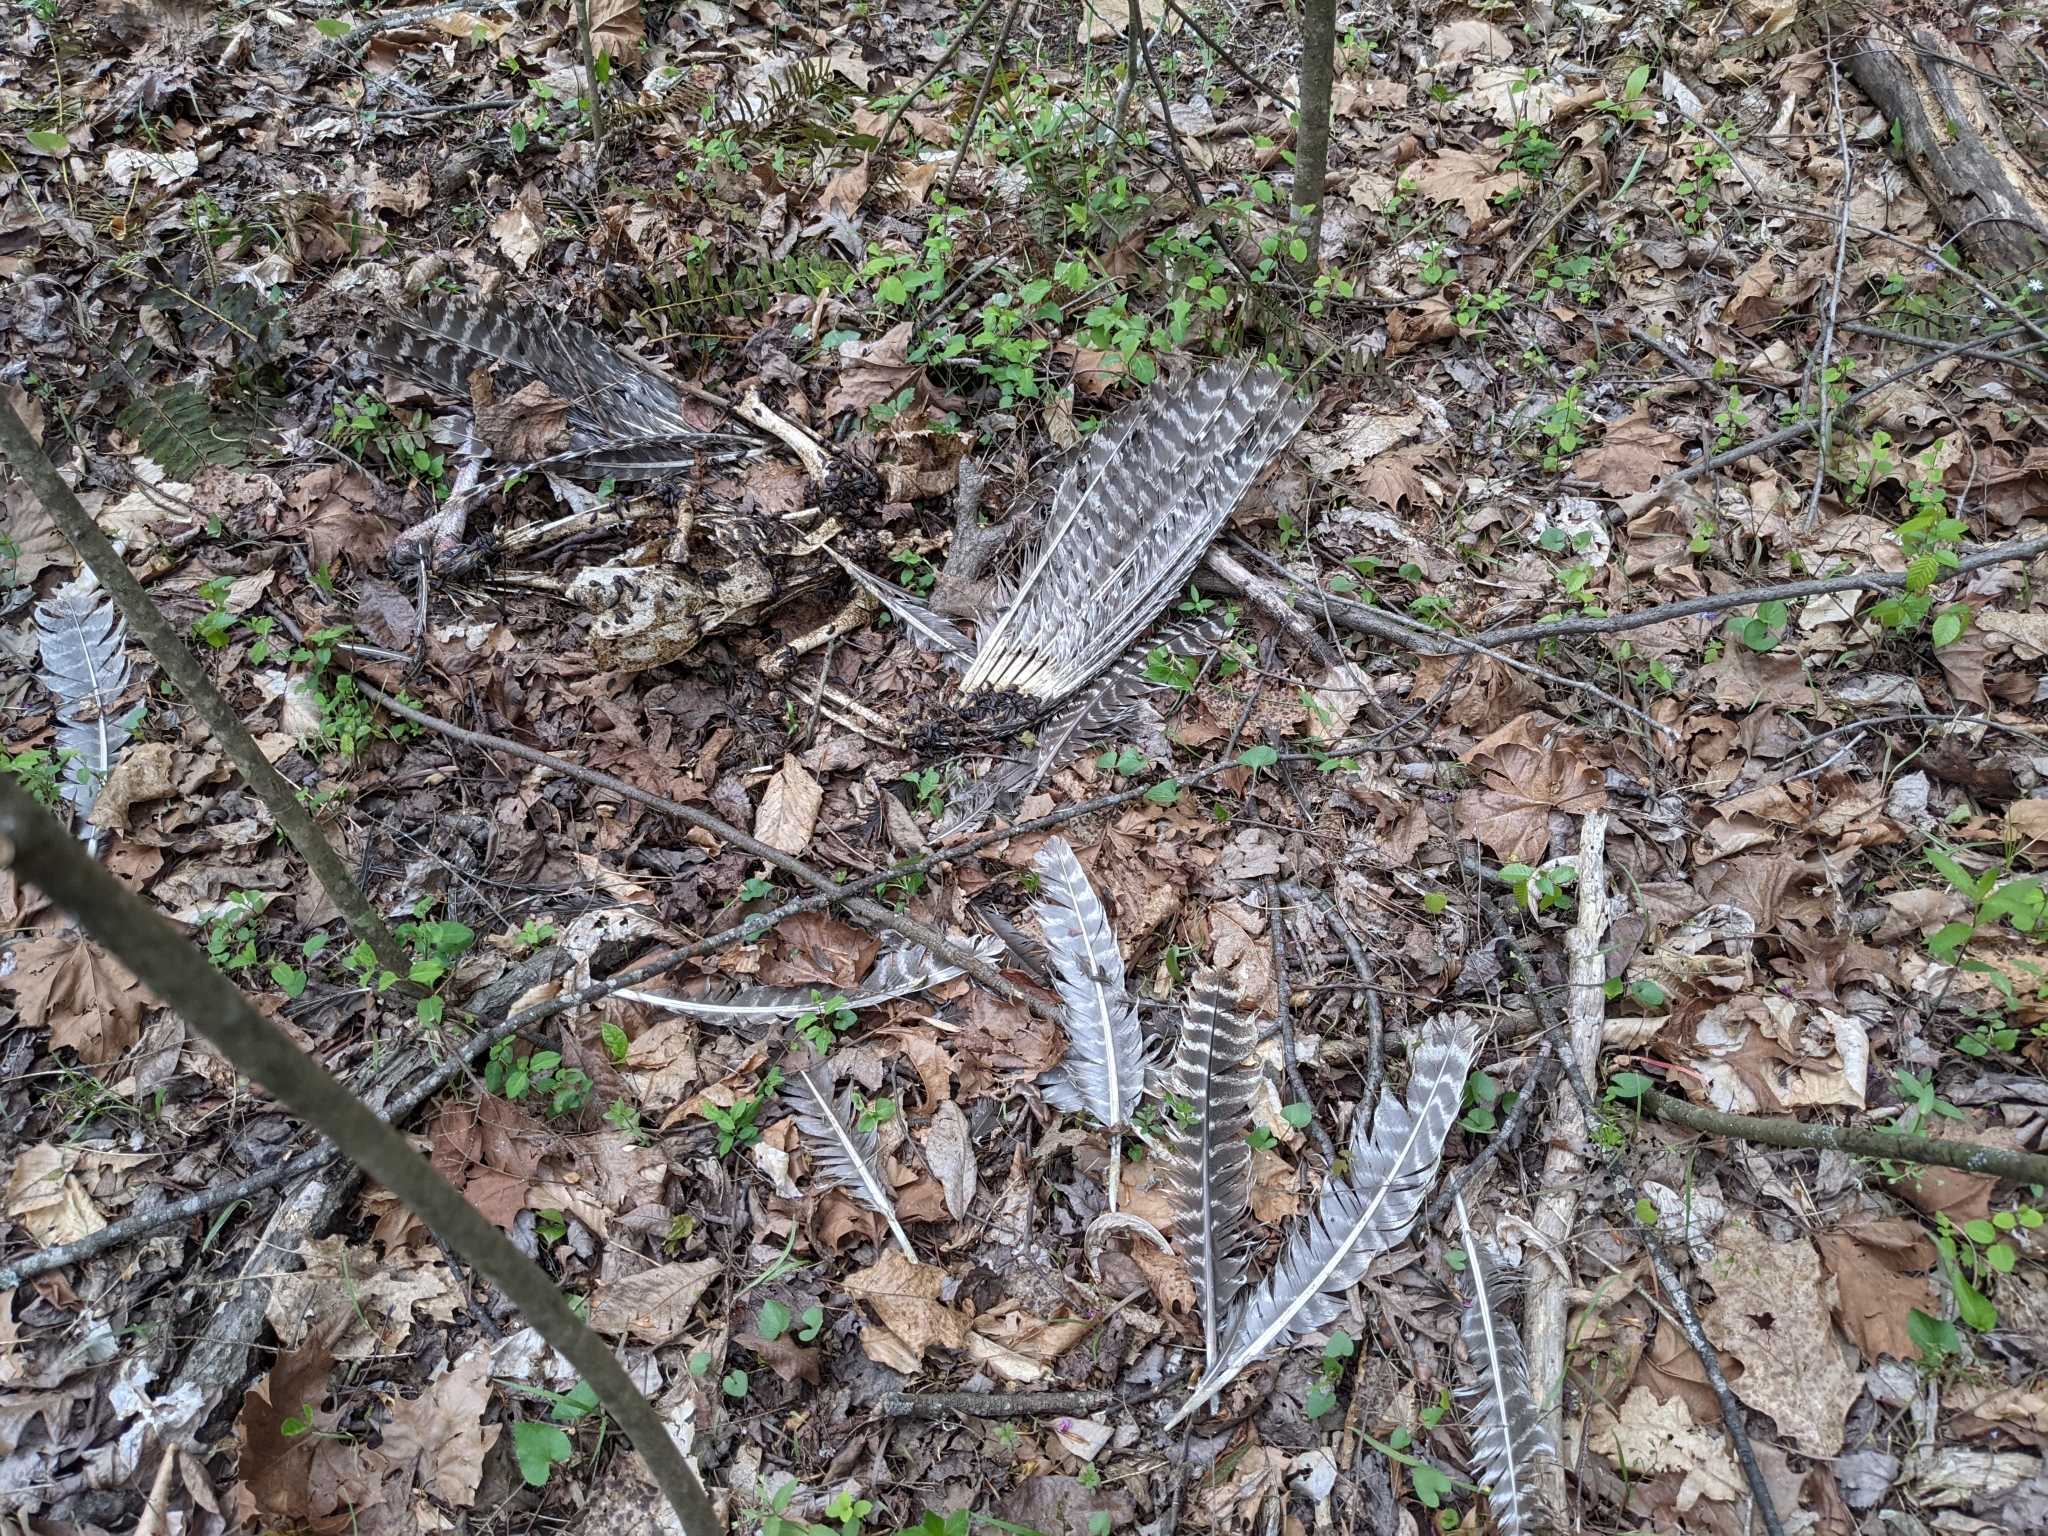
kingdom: Animalia
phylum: Chordata
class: Aves
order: Galliformes
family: Phasianidae
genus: Meleagris
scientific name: Meleagris gallopavo
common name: Wild turkey
